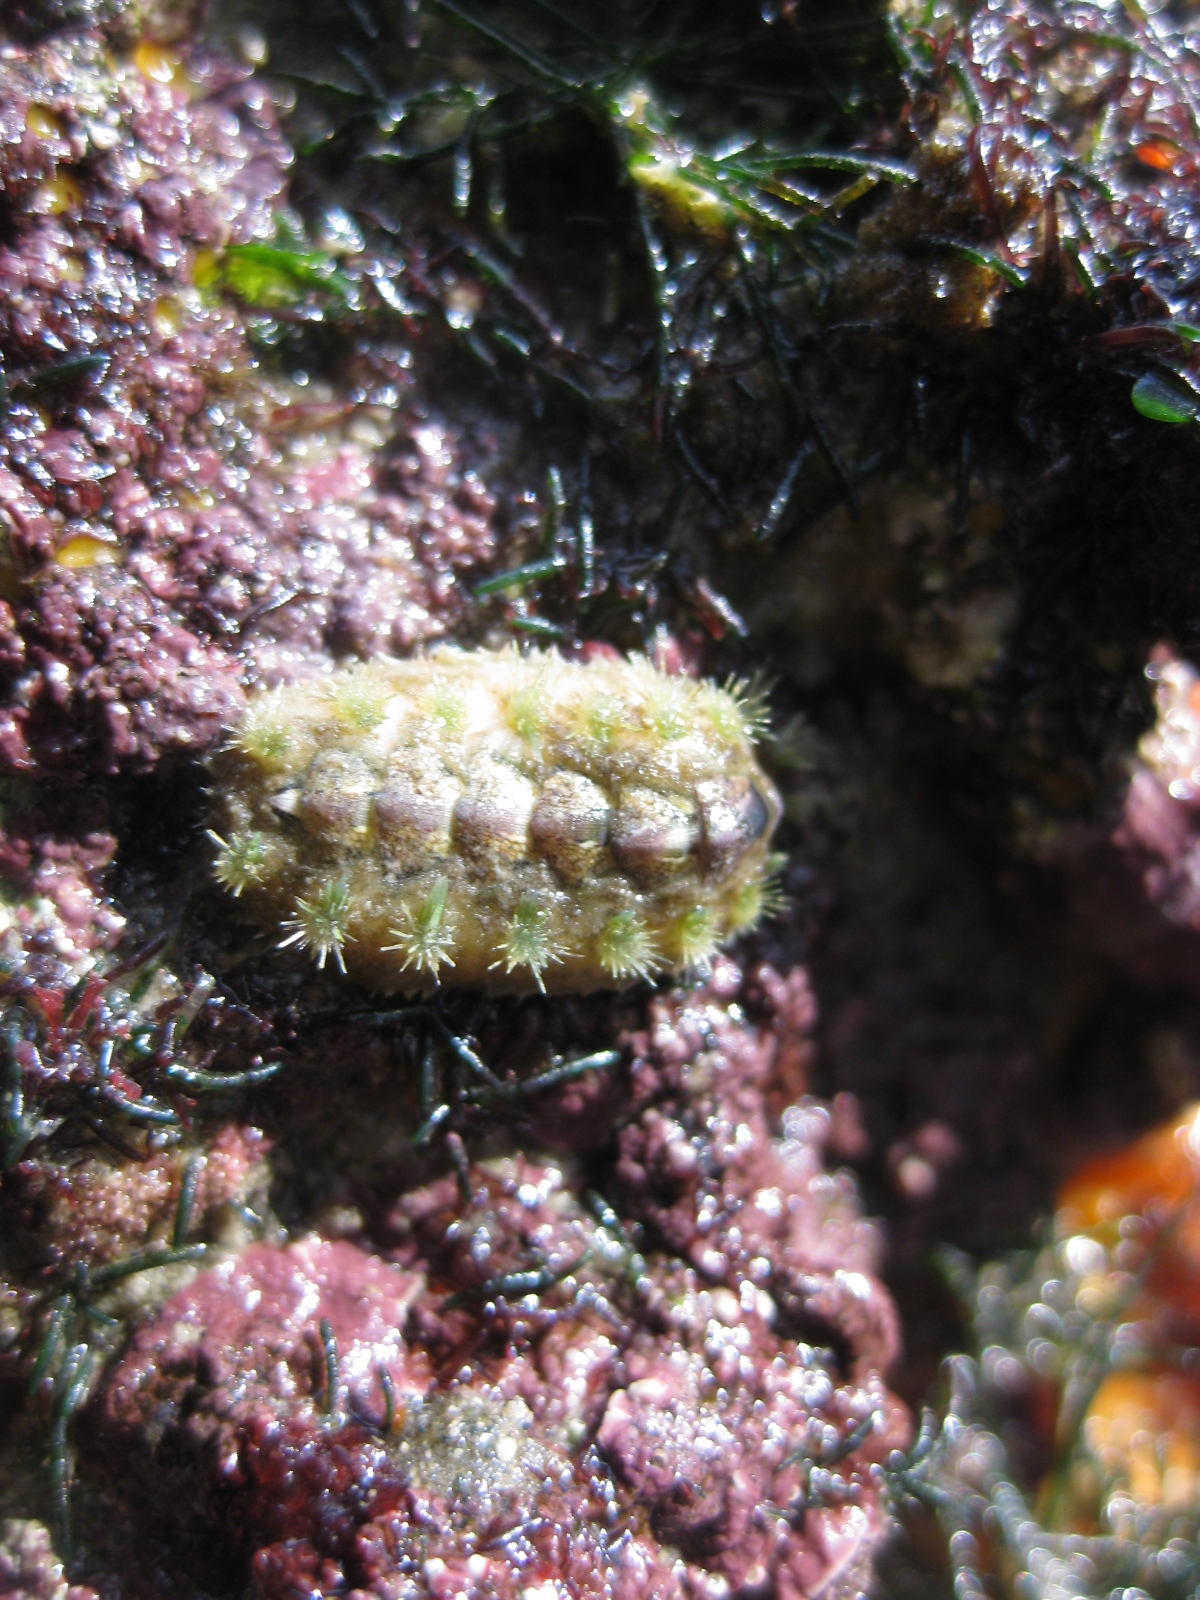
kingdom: Animalia
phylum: Mollusca
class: Polyplacophora
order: Chitonida
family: Acanthochitonidae
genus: Acanthochitona
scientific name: Acanthochitona zelandica
